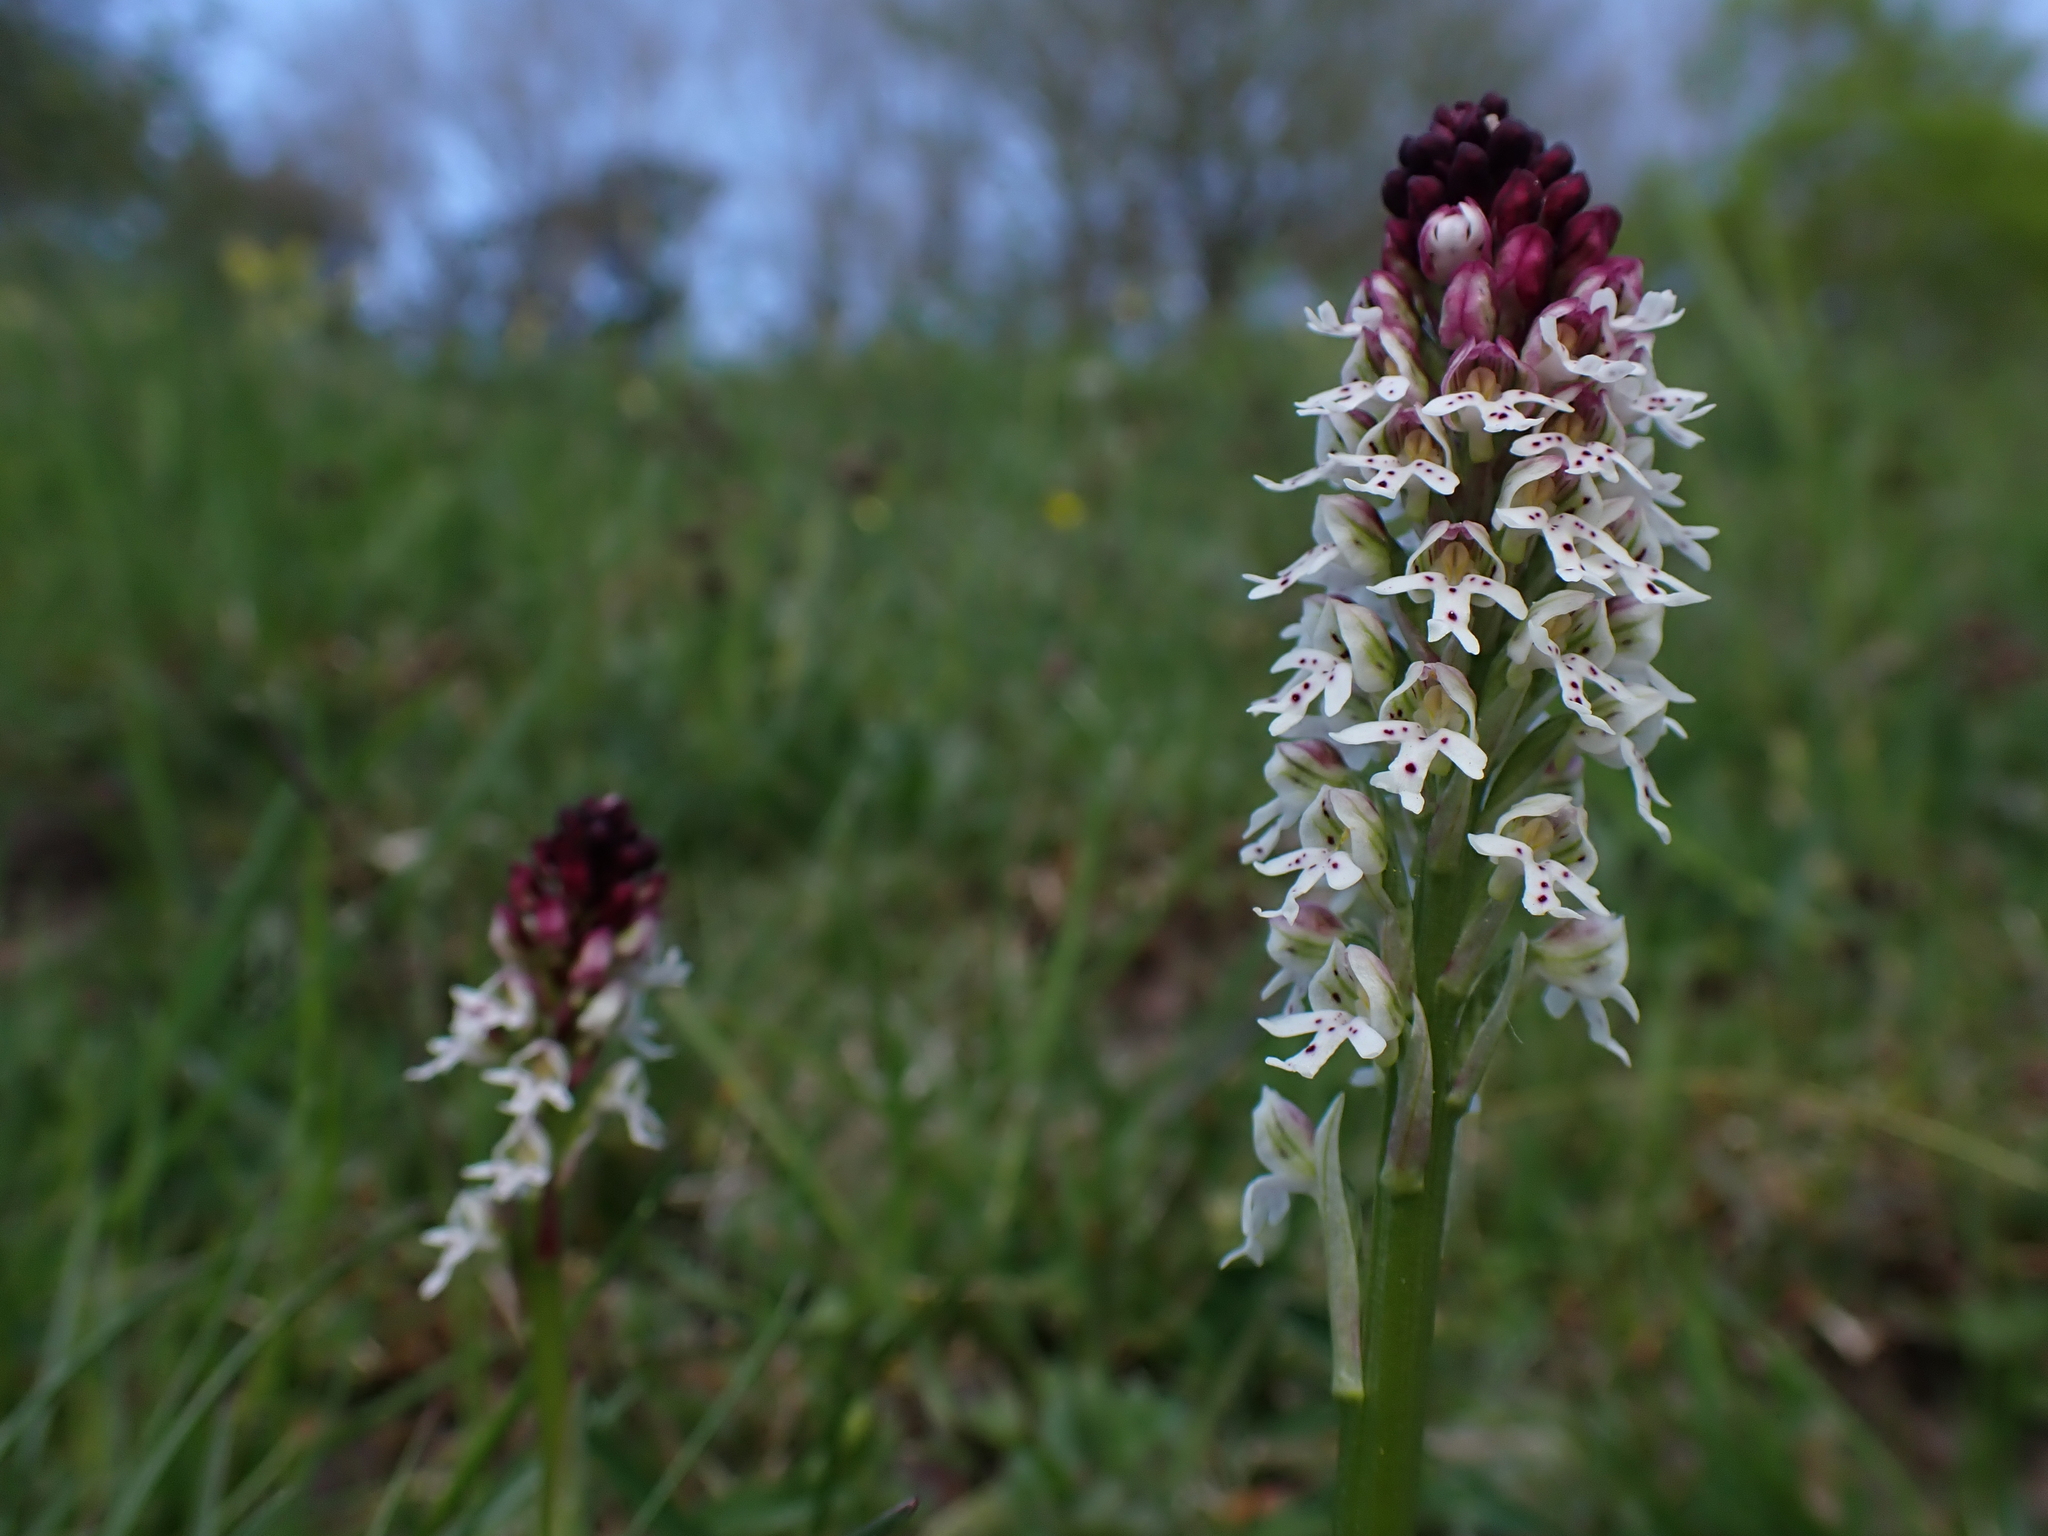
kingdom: Plantae
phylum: Tracheophyta
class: Liliopsida
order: Asparagales
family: Orchidaceae
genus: Neotinea
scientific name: Neotinea ustulata
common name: Burnt orchid
